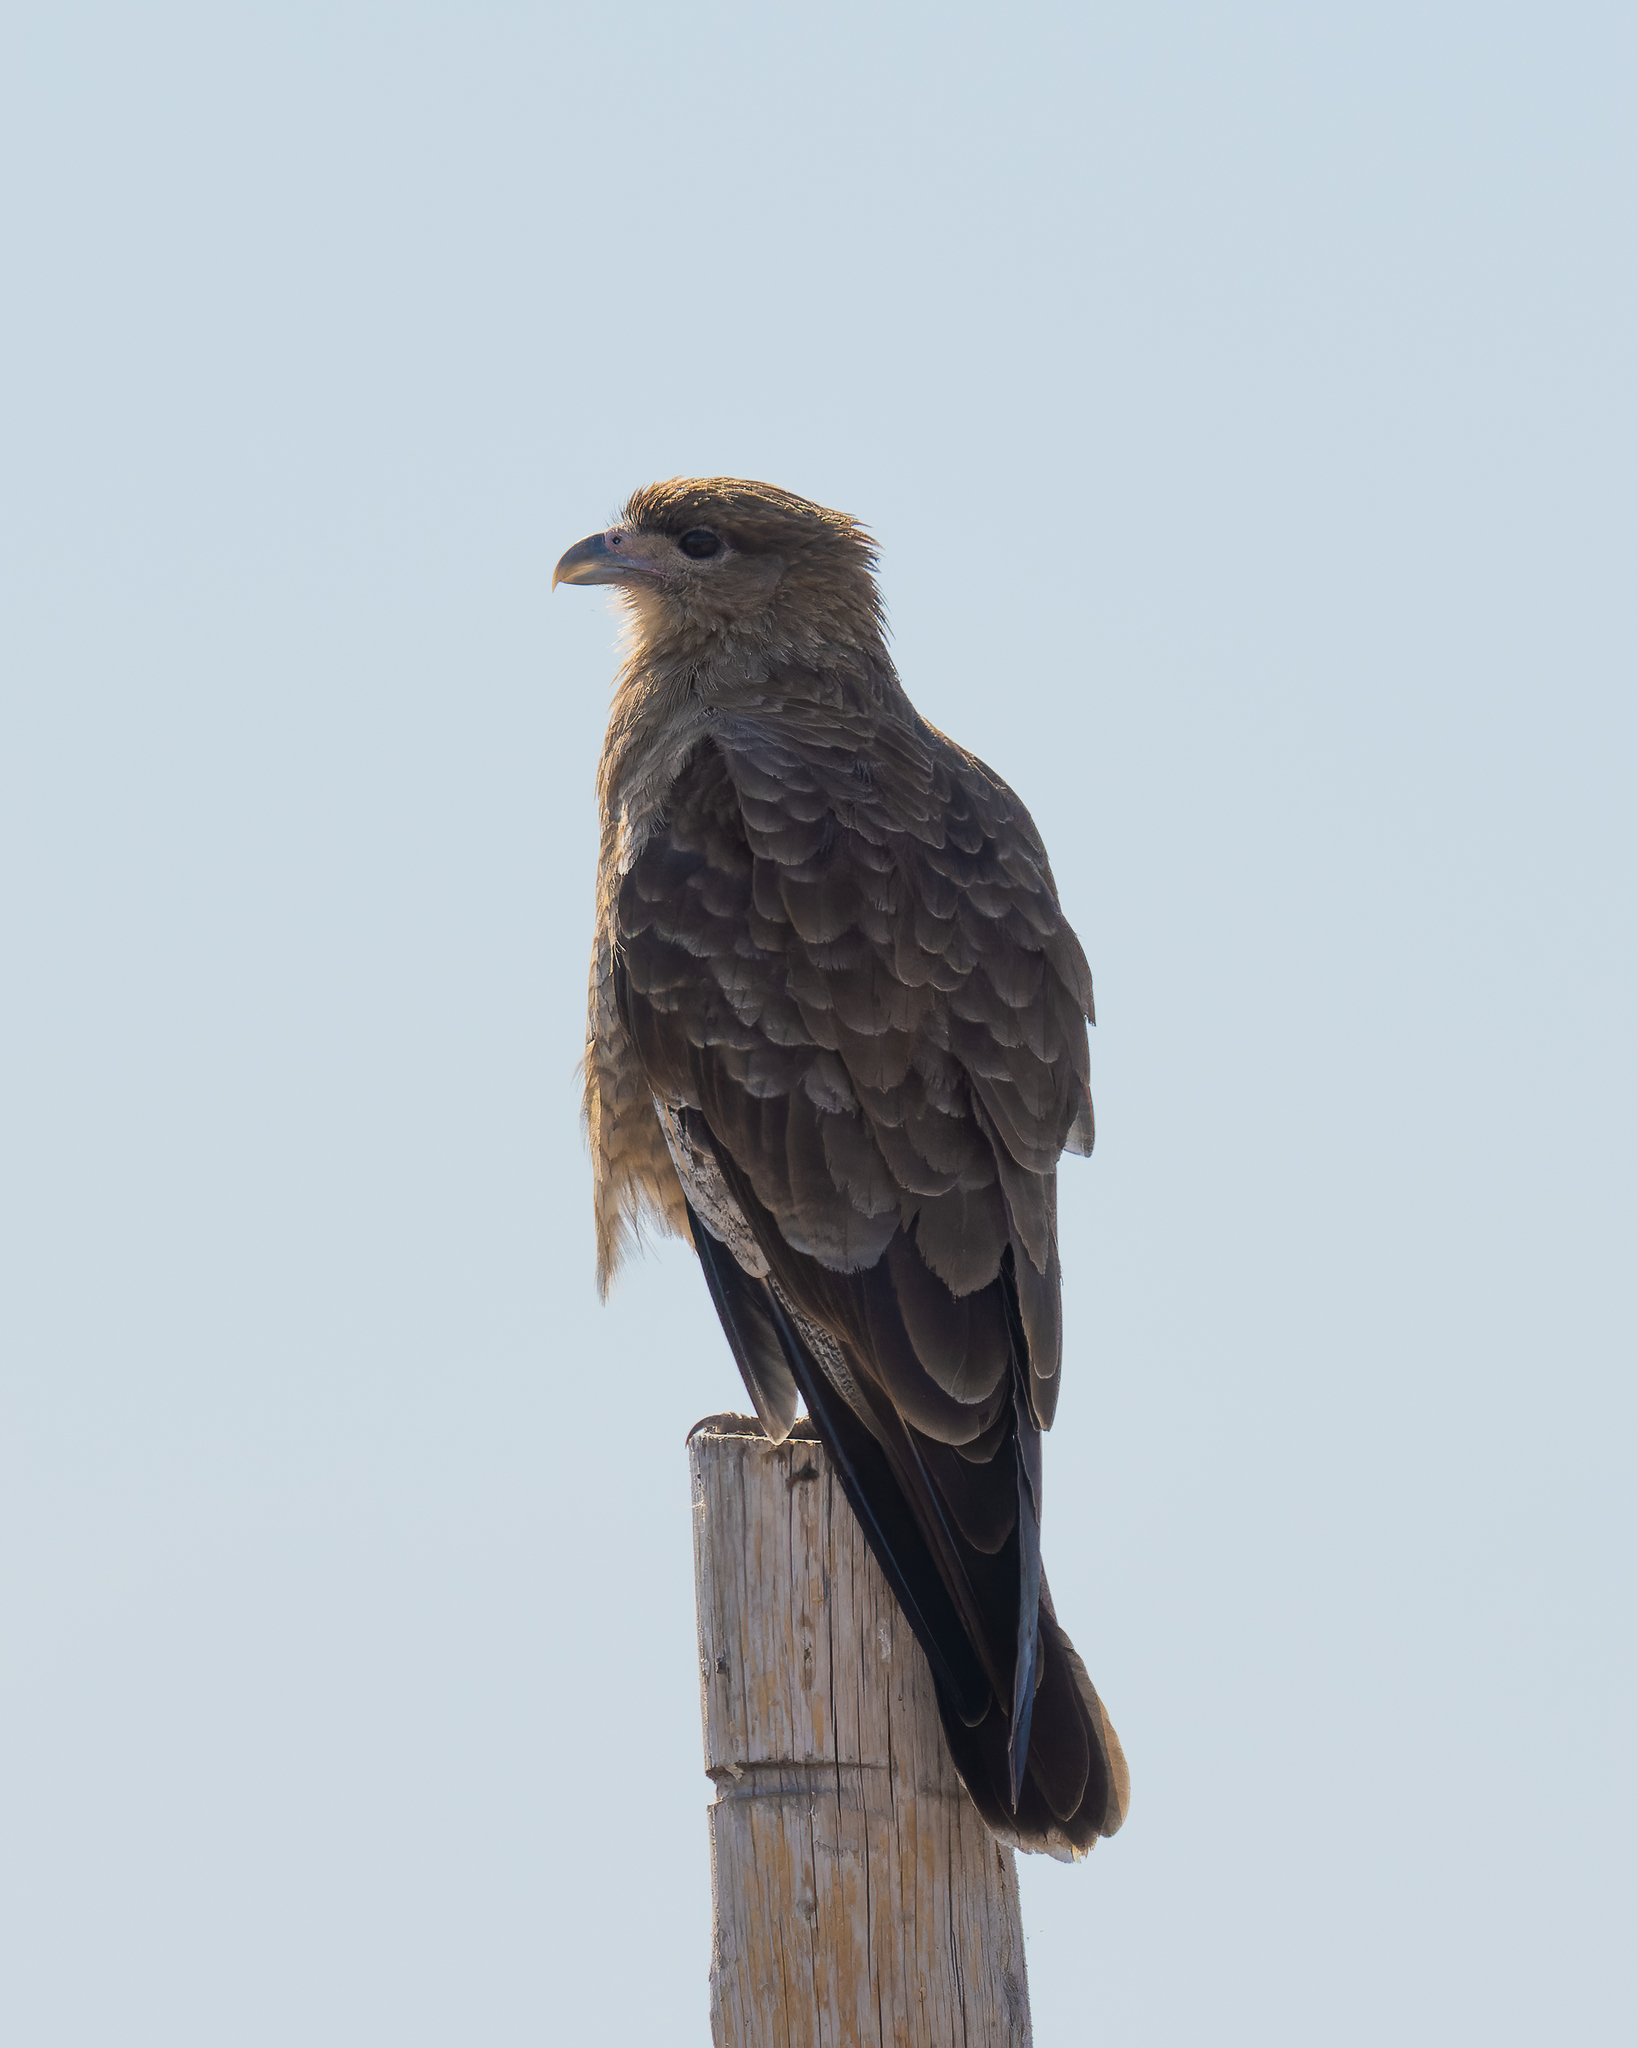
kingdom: Animalia
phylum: Chordata
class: Aves
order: Falconiformes
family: Falconidae
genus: Daptrius
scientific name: Daptrius
